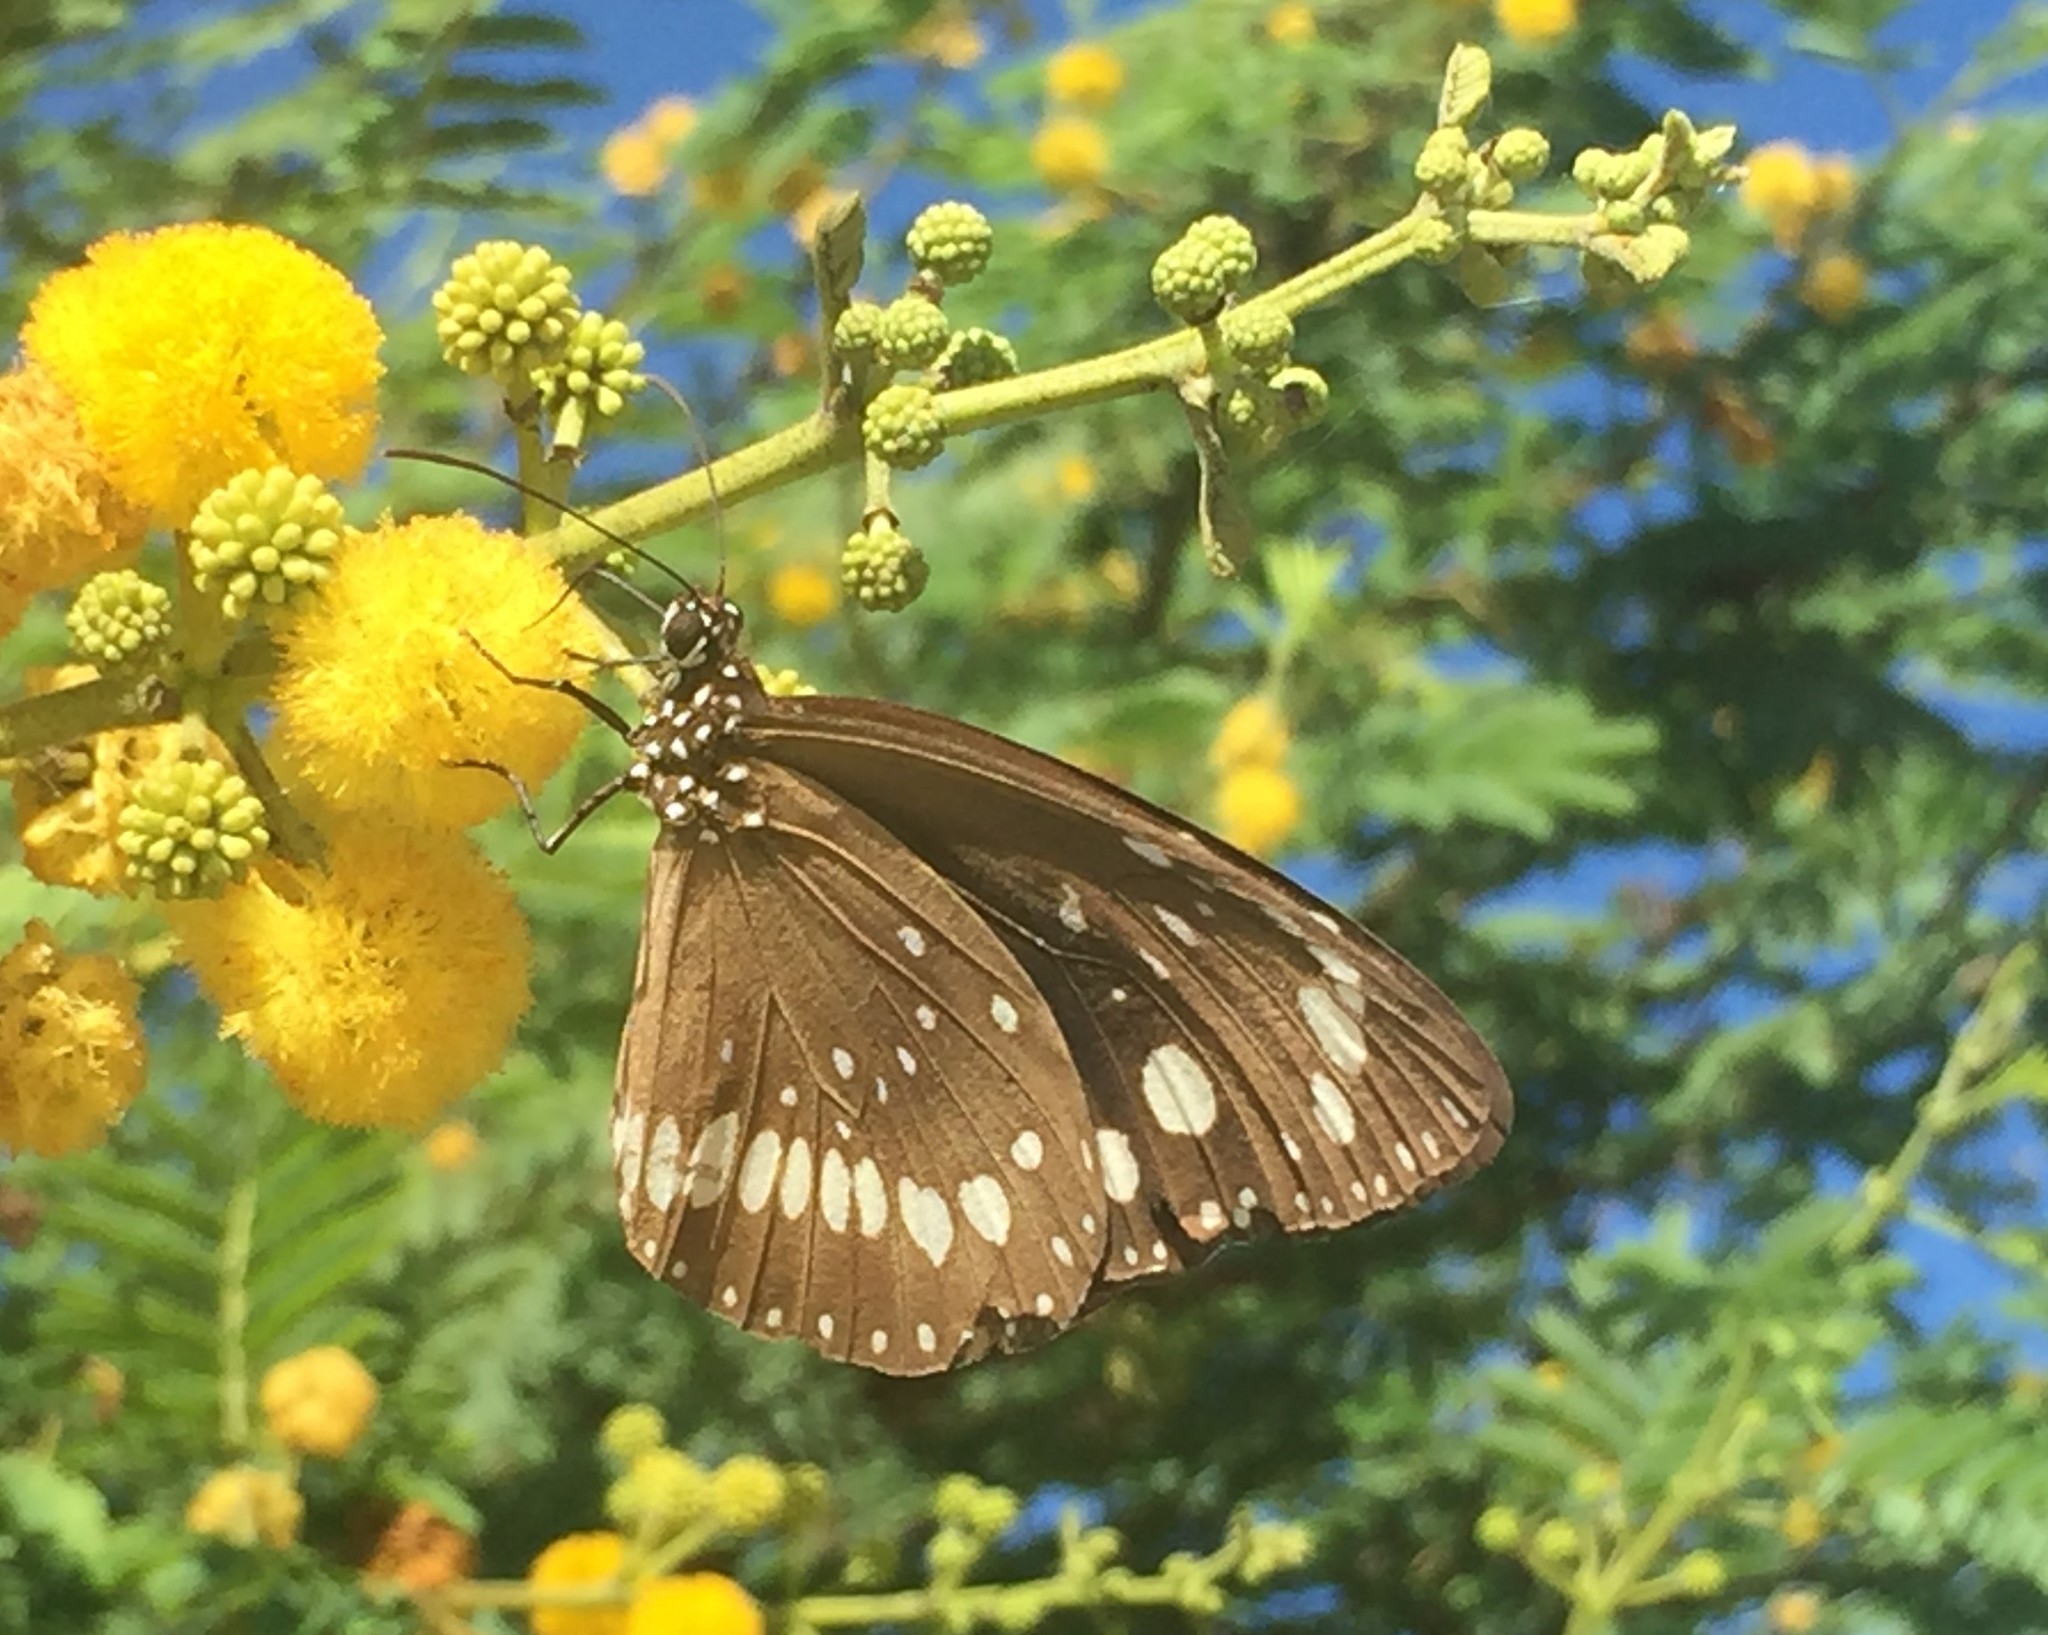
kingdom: Animalia
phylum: Arthropoda
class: Insecta
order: Lepidoptera
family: Nymphalidae
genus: Euploea
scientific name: Euploea core
